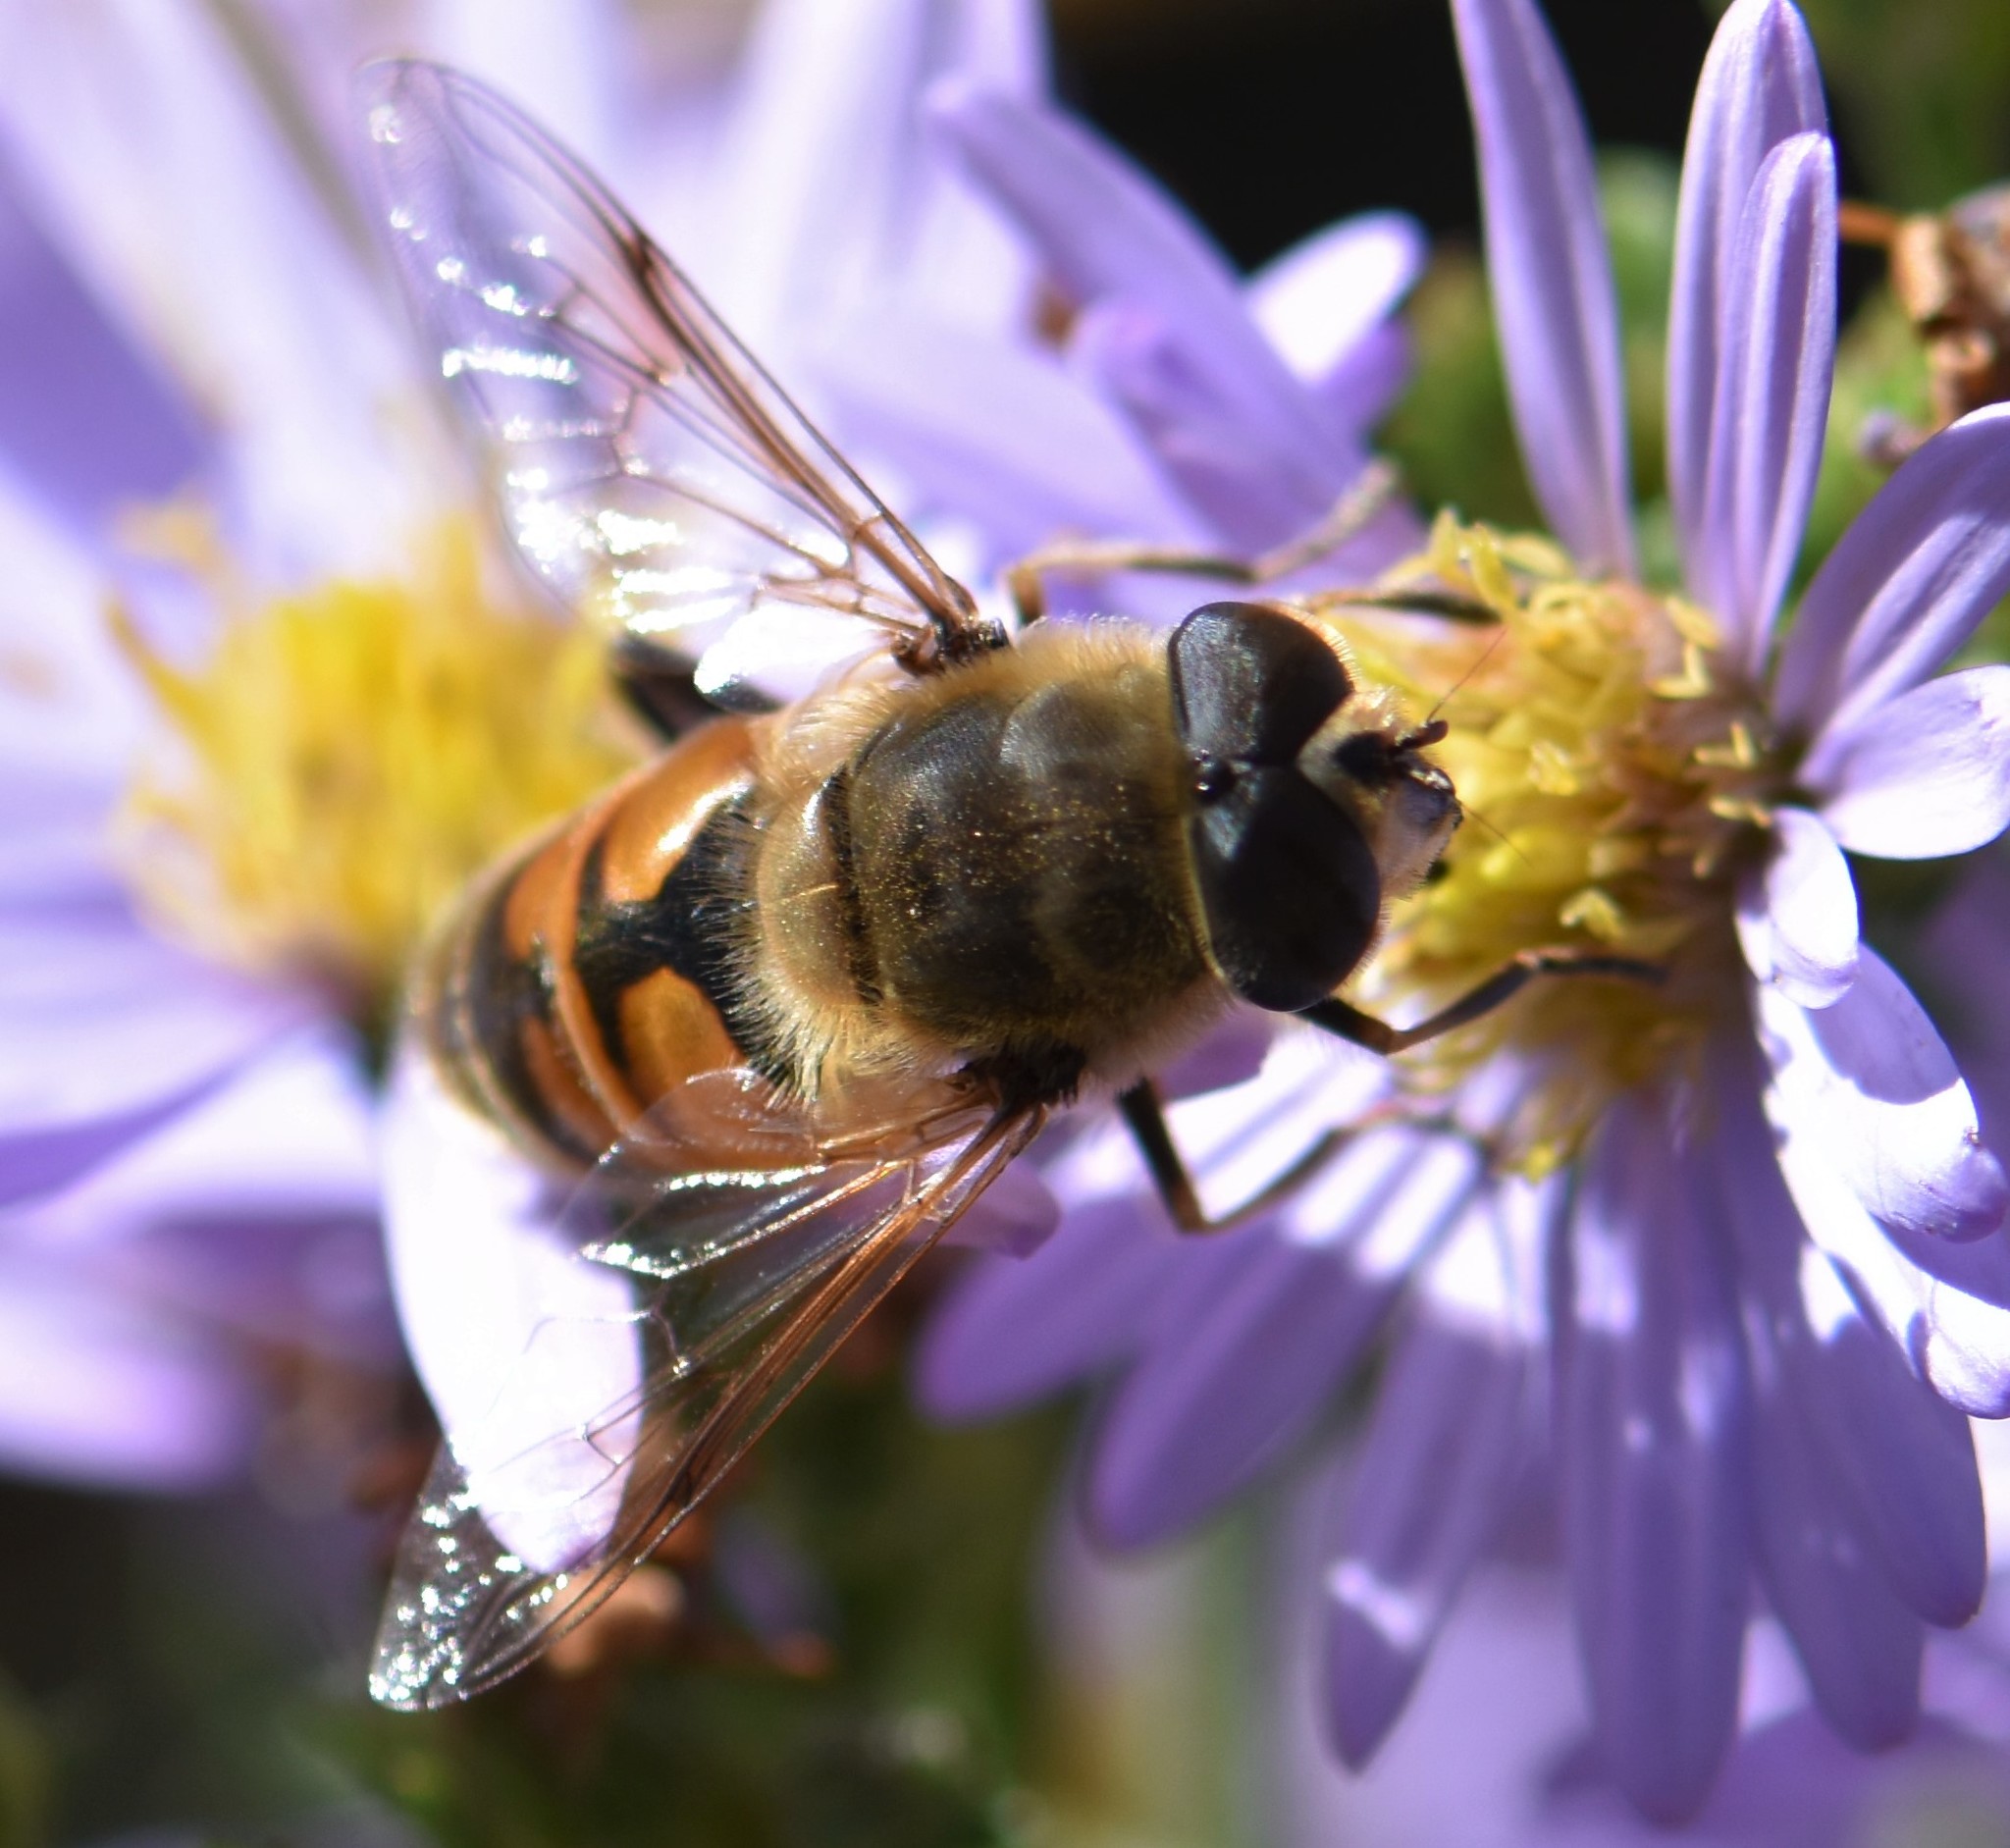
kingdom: Animalia
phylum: Arthropoda
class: Insecta
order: Diptera
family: Syrphidae
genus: Eristalis
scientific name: Eristalis tenax
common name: Drone fly
